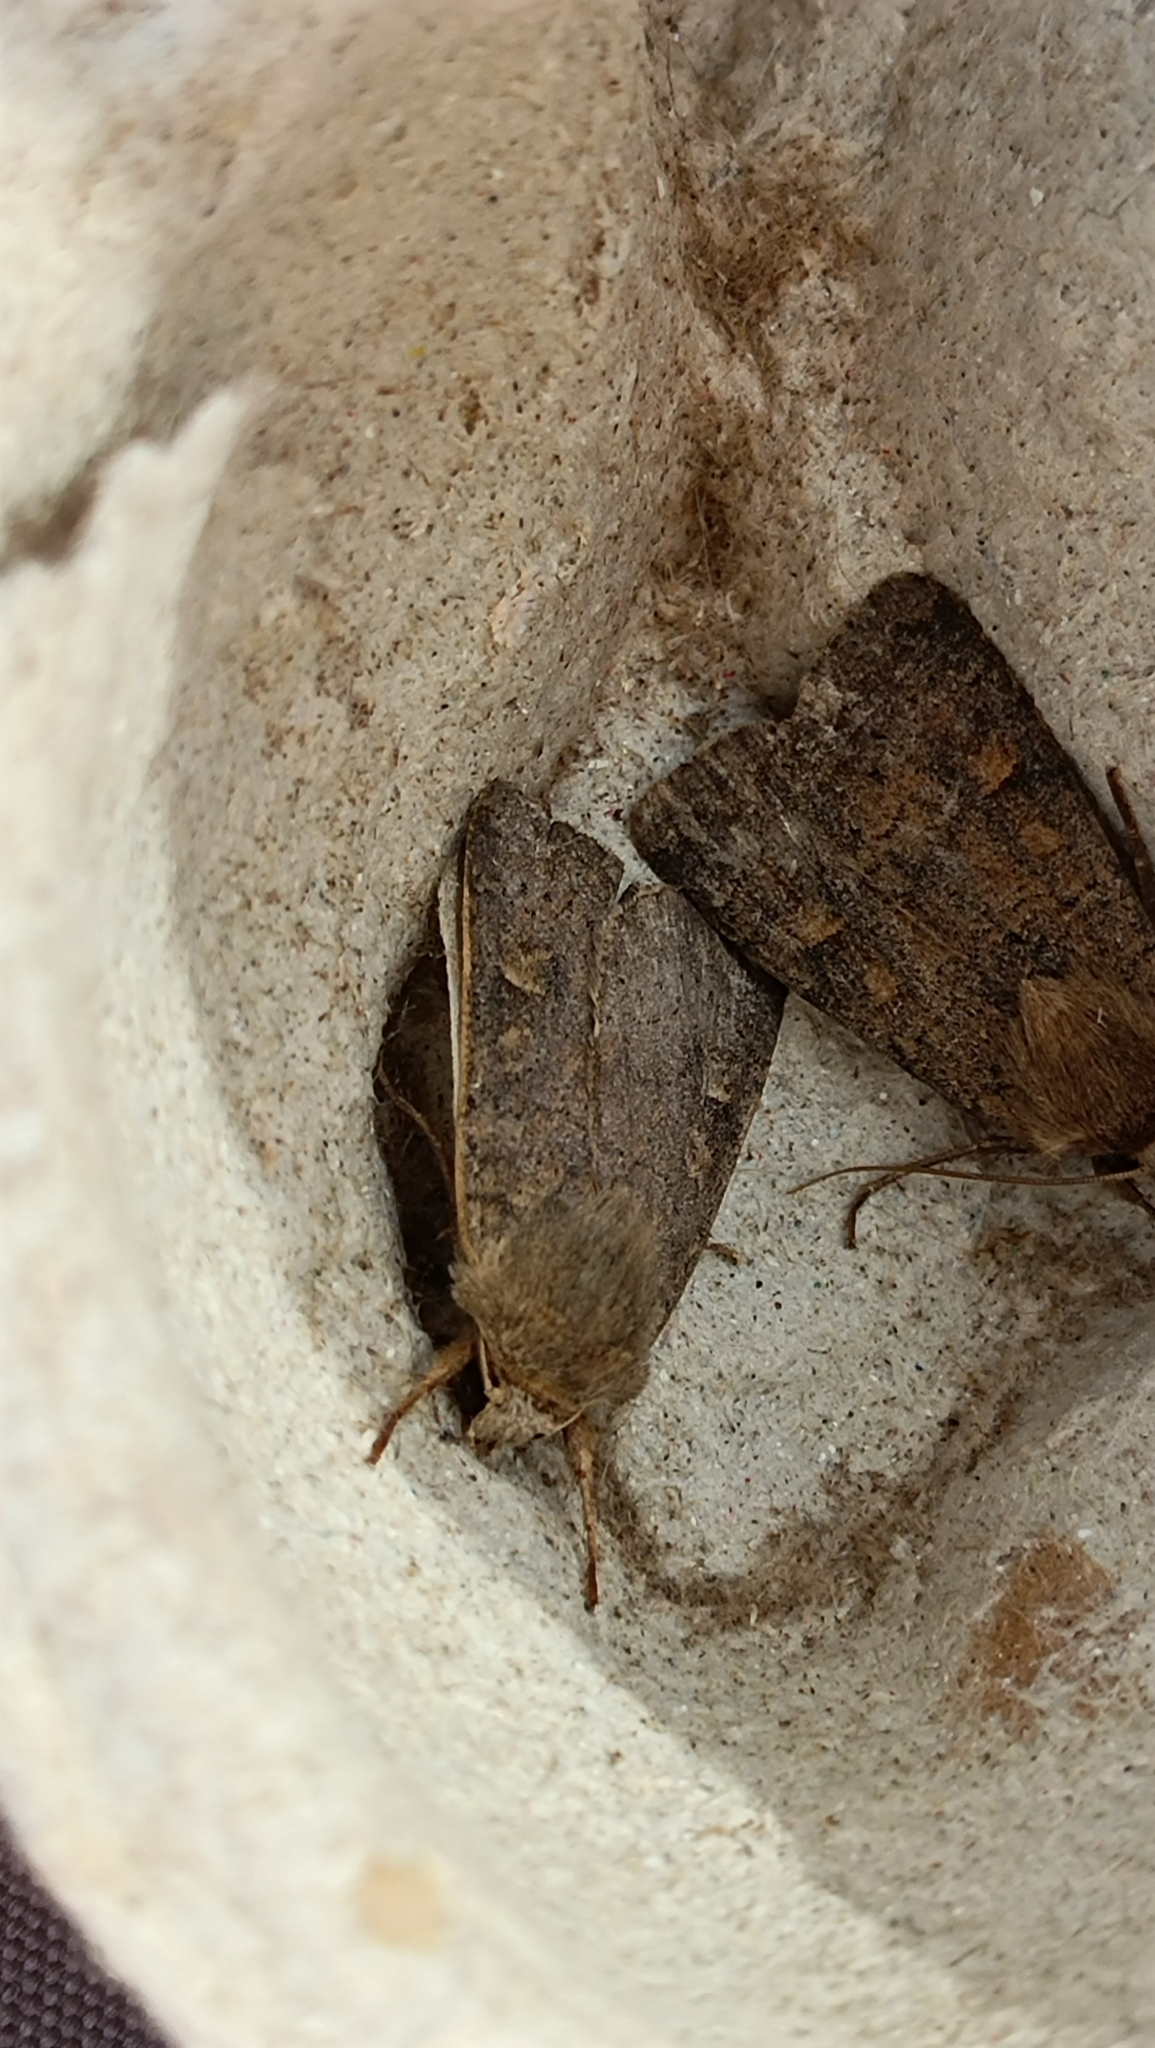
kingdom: Animalia
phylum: Arthropoda
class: Insecta
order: Lepidoptera
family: Noctuidae
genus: Amphipyra
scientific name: Amphipyra tragopoginis
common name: Mouse moth
